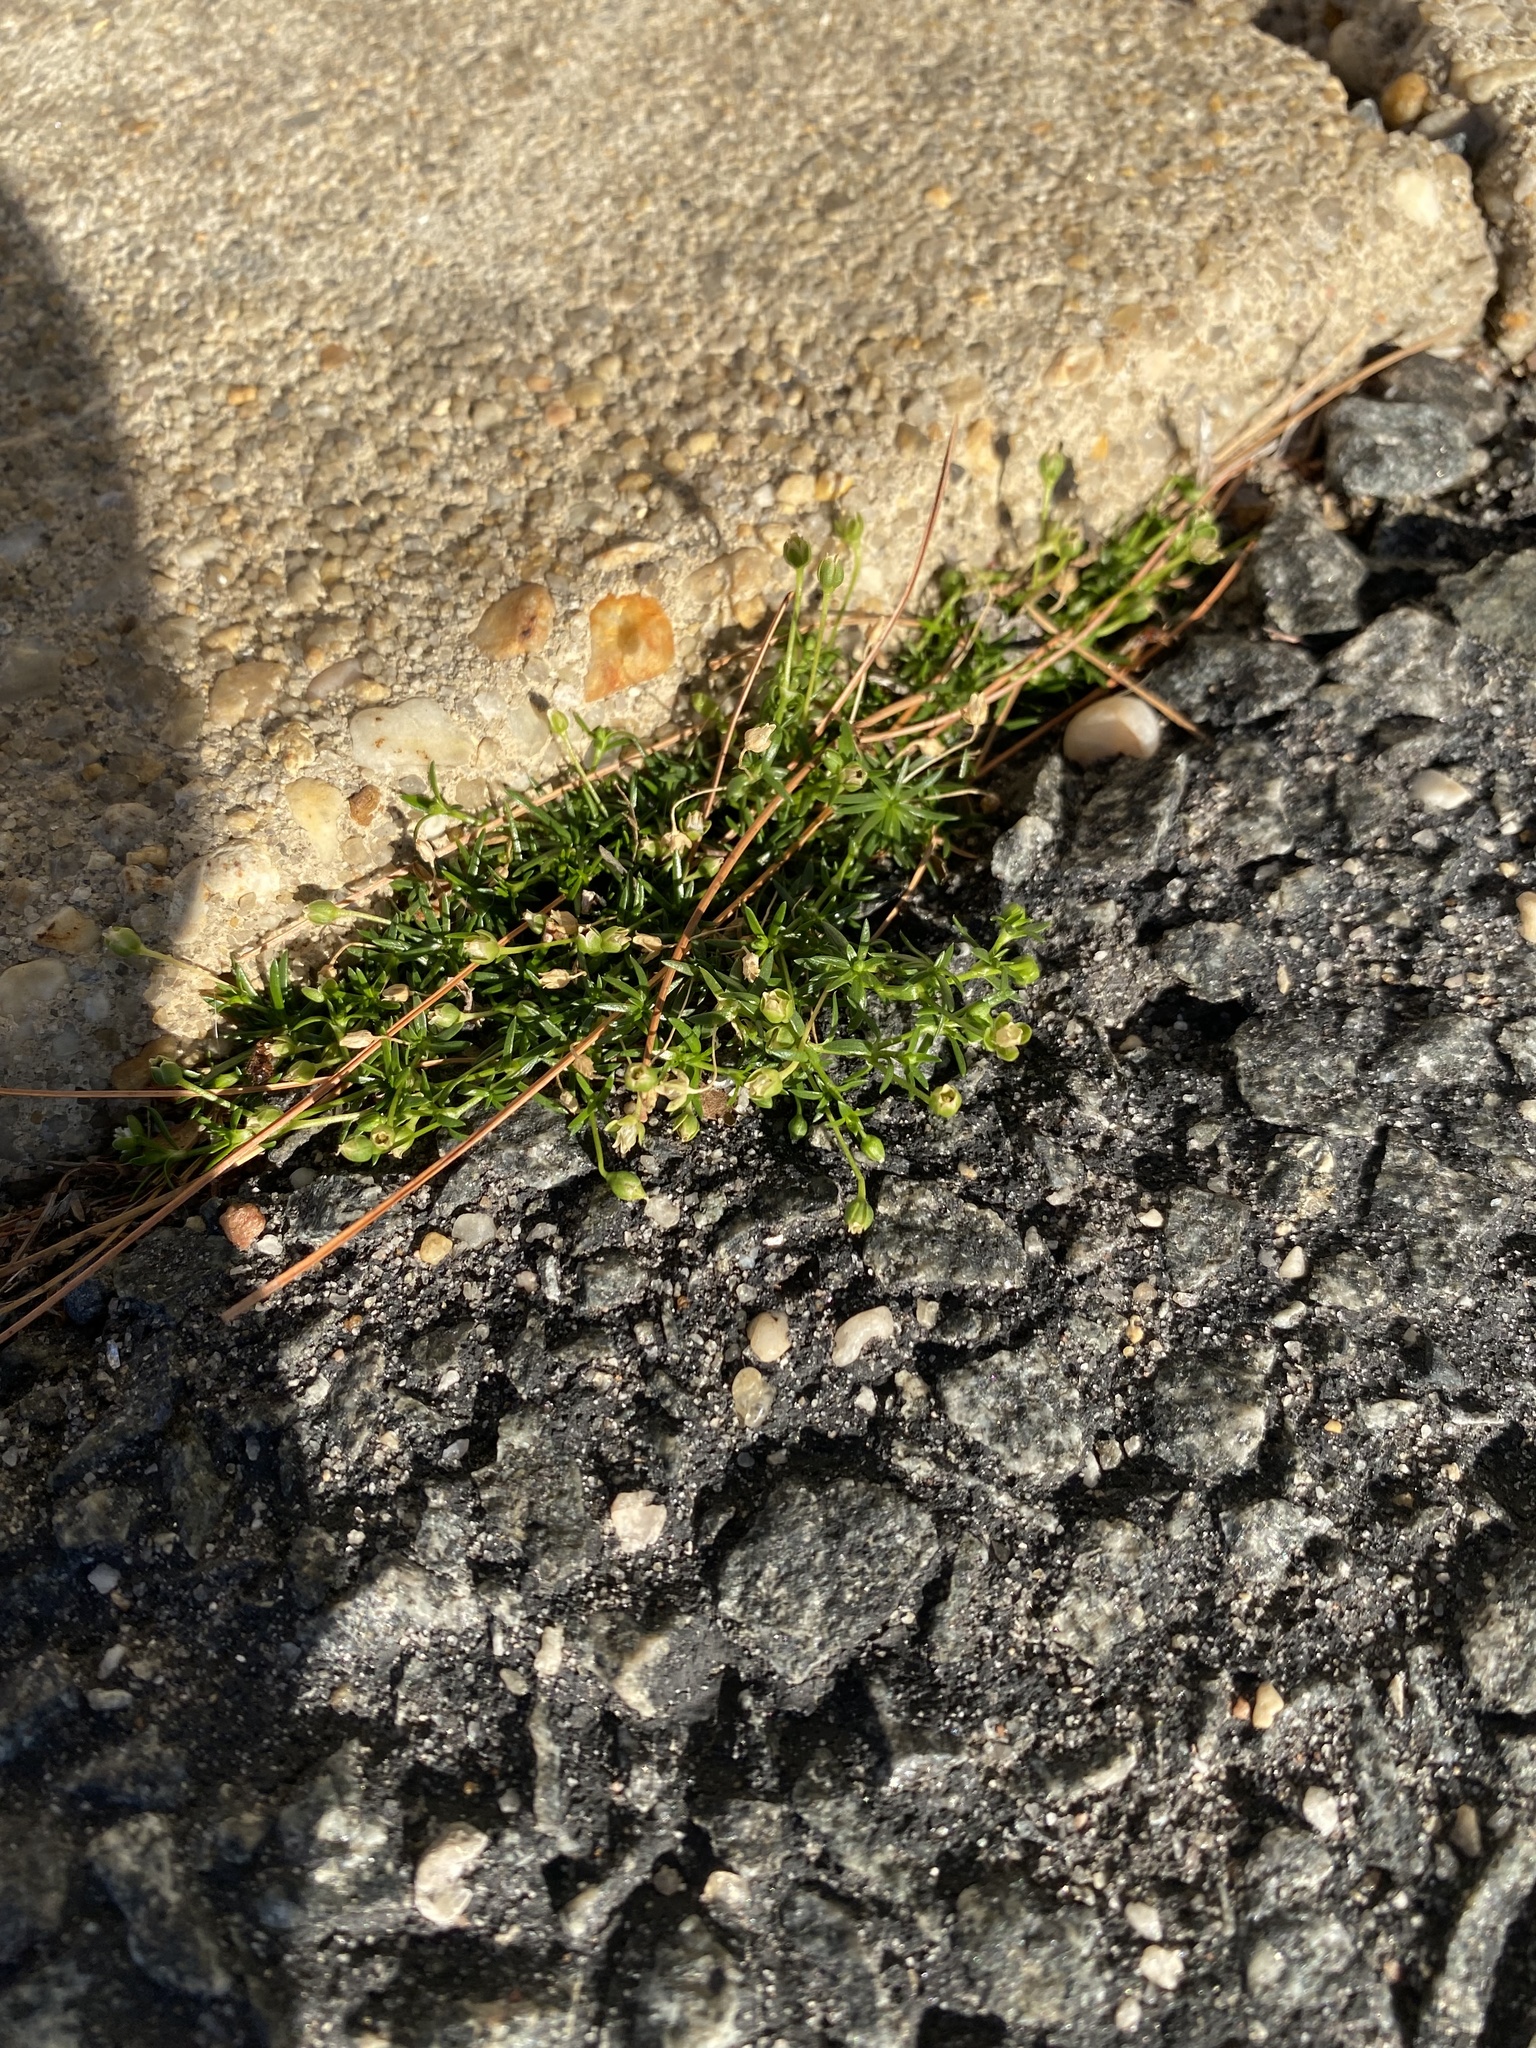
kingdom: Plantae
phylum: Tracheophyta
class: Magnoliopsida
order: Caryophyllales
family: Caryophyllaceae
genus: Sagina
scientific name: Sagina procumbens
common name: Procumbent pearlwort
